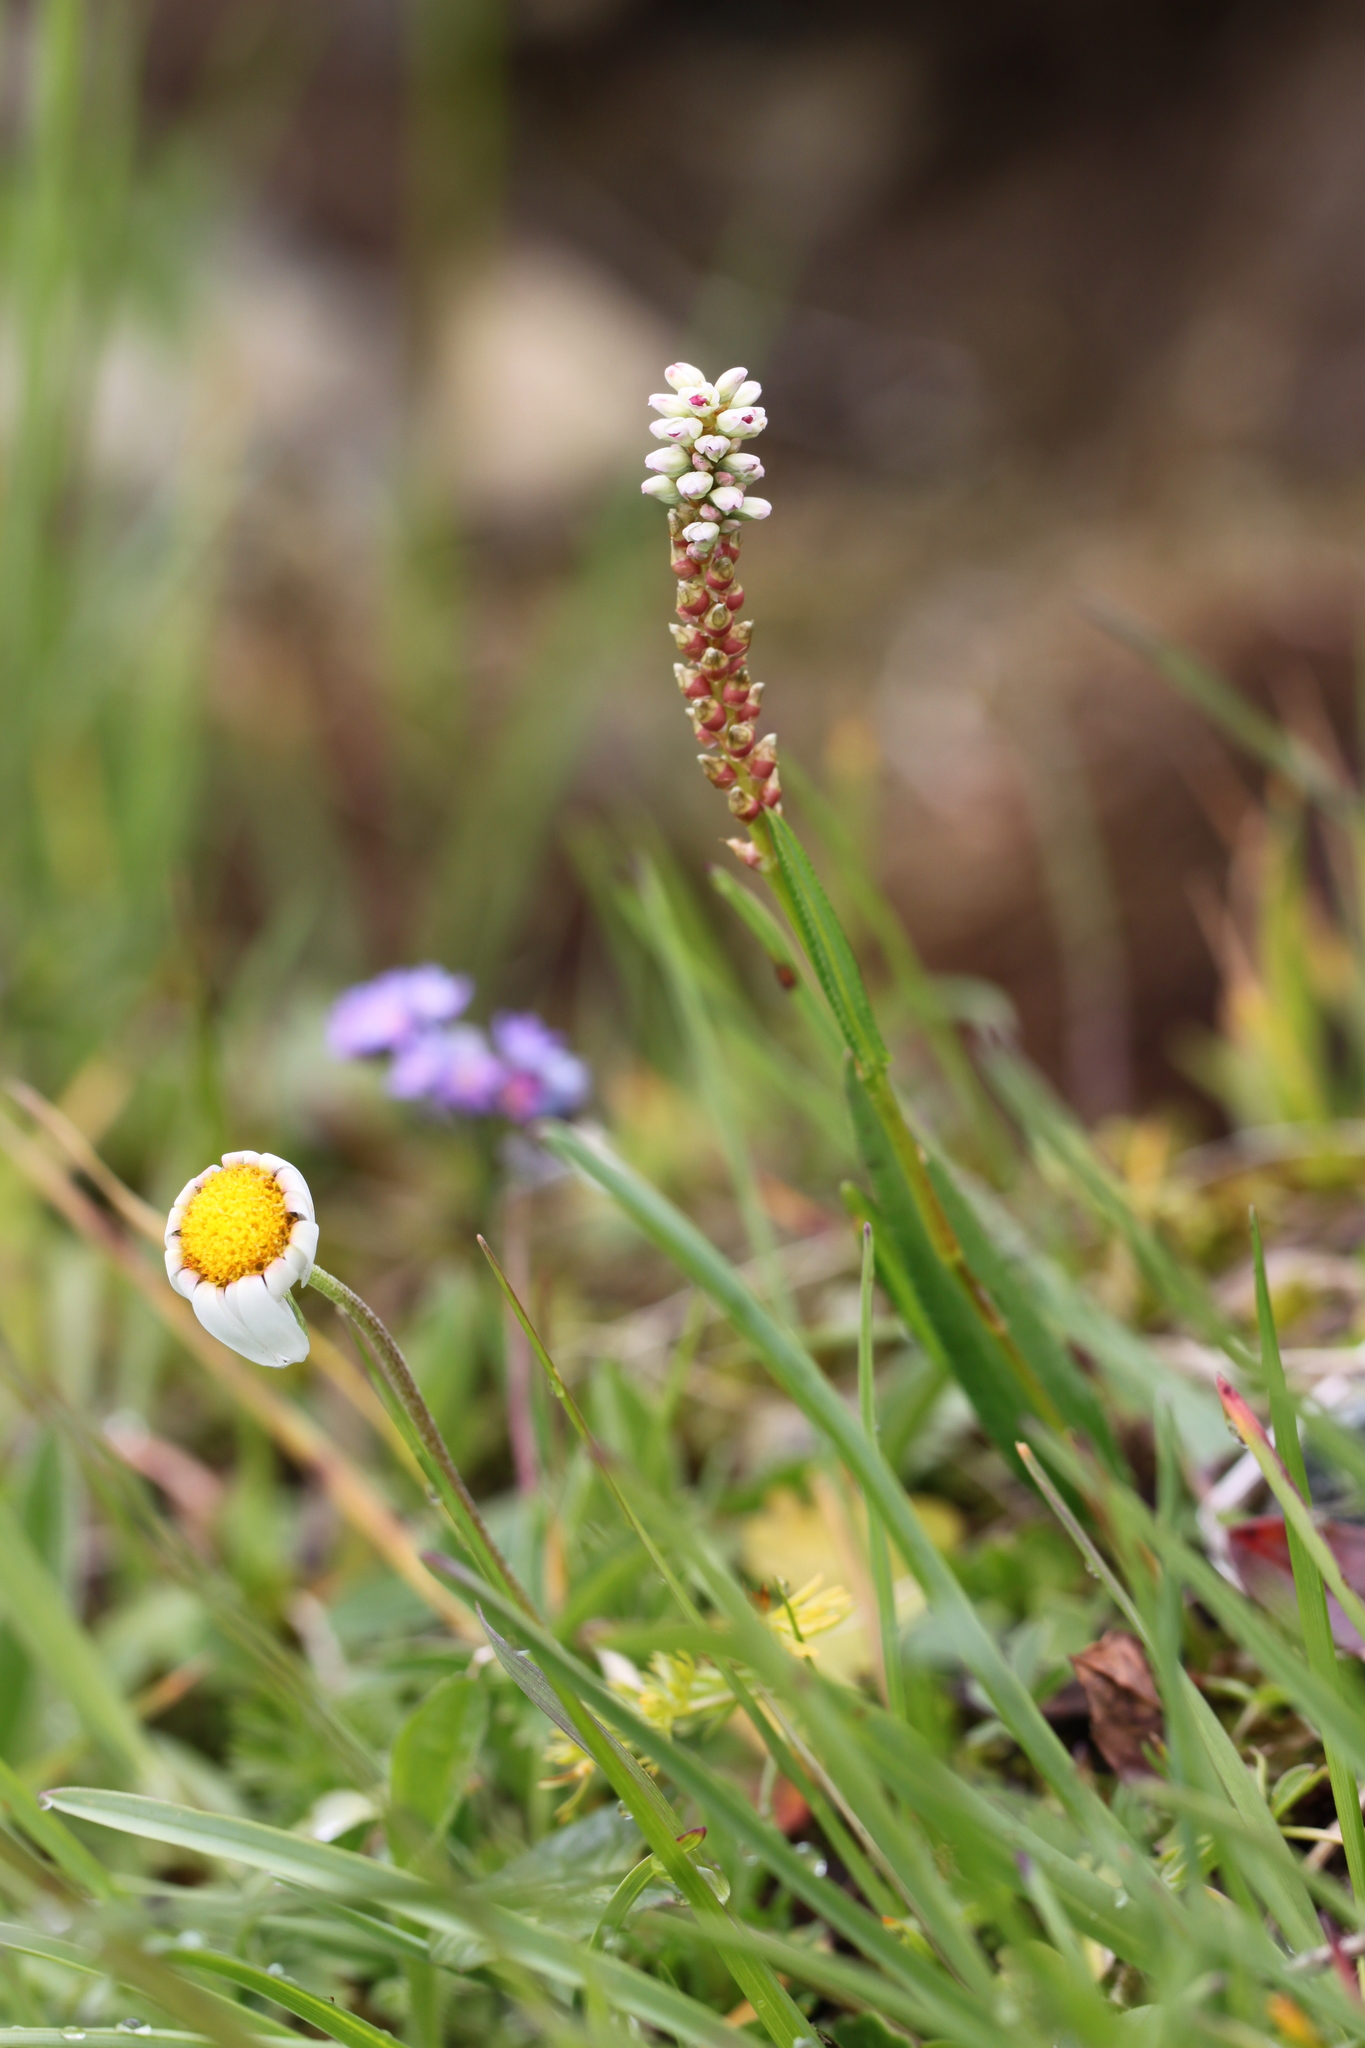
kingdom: Plantae
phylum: Tracheophyta
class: Magnoliopsida
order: Caryophyllales
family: Polygonaceae
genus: Bistorta
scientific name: Bistorta vivipara
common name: Alpine bistort
